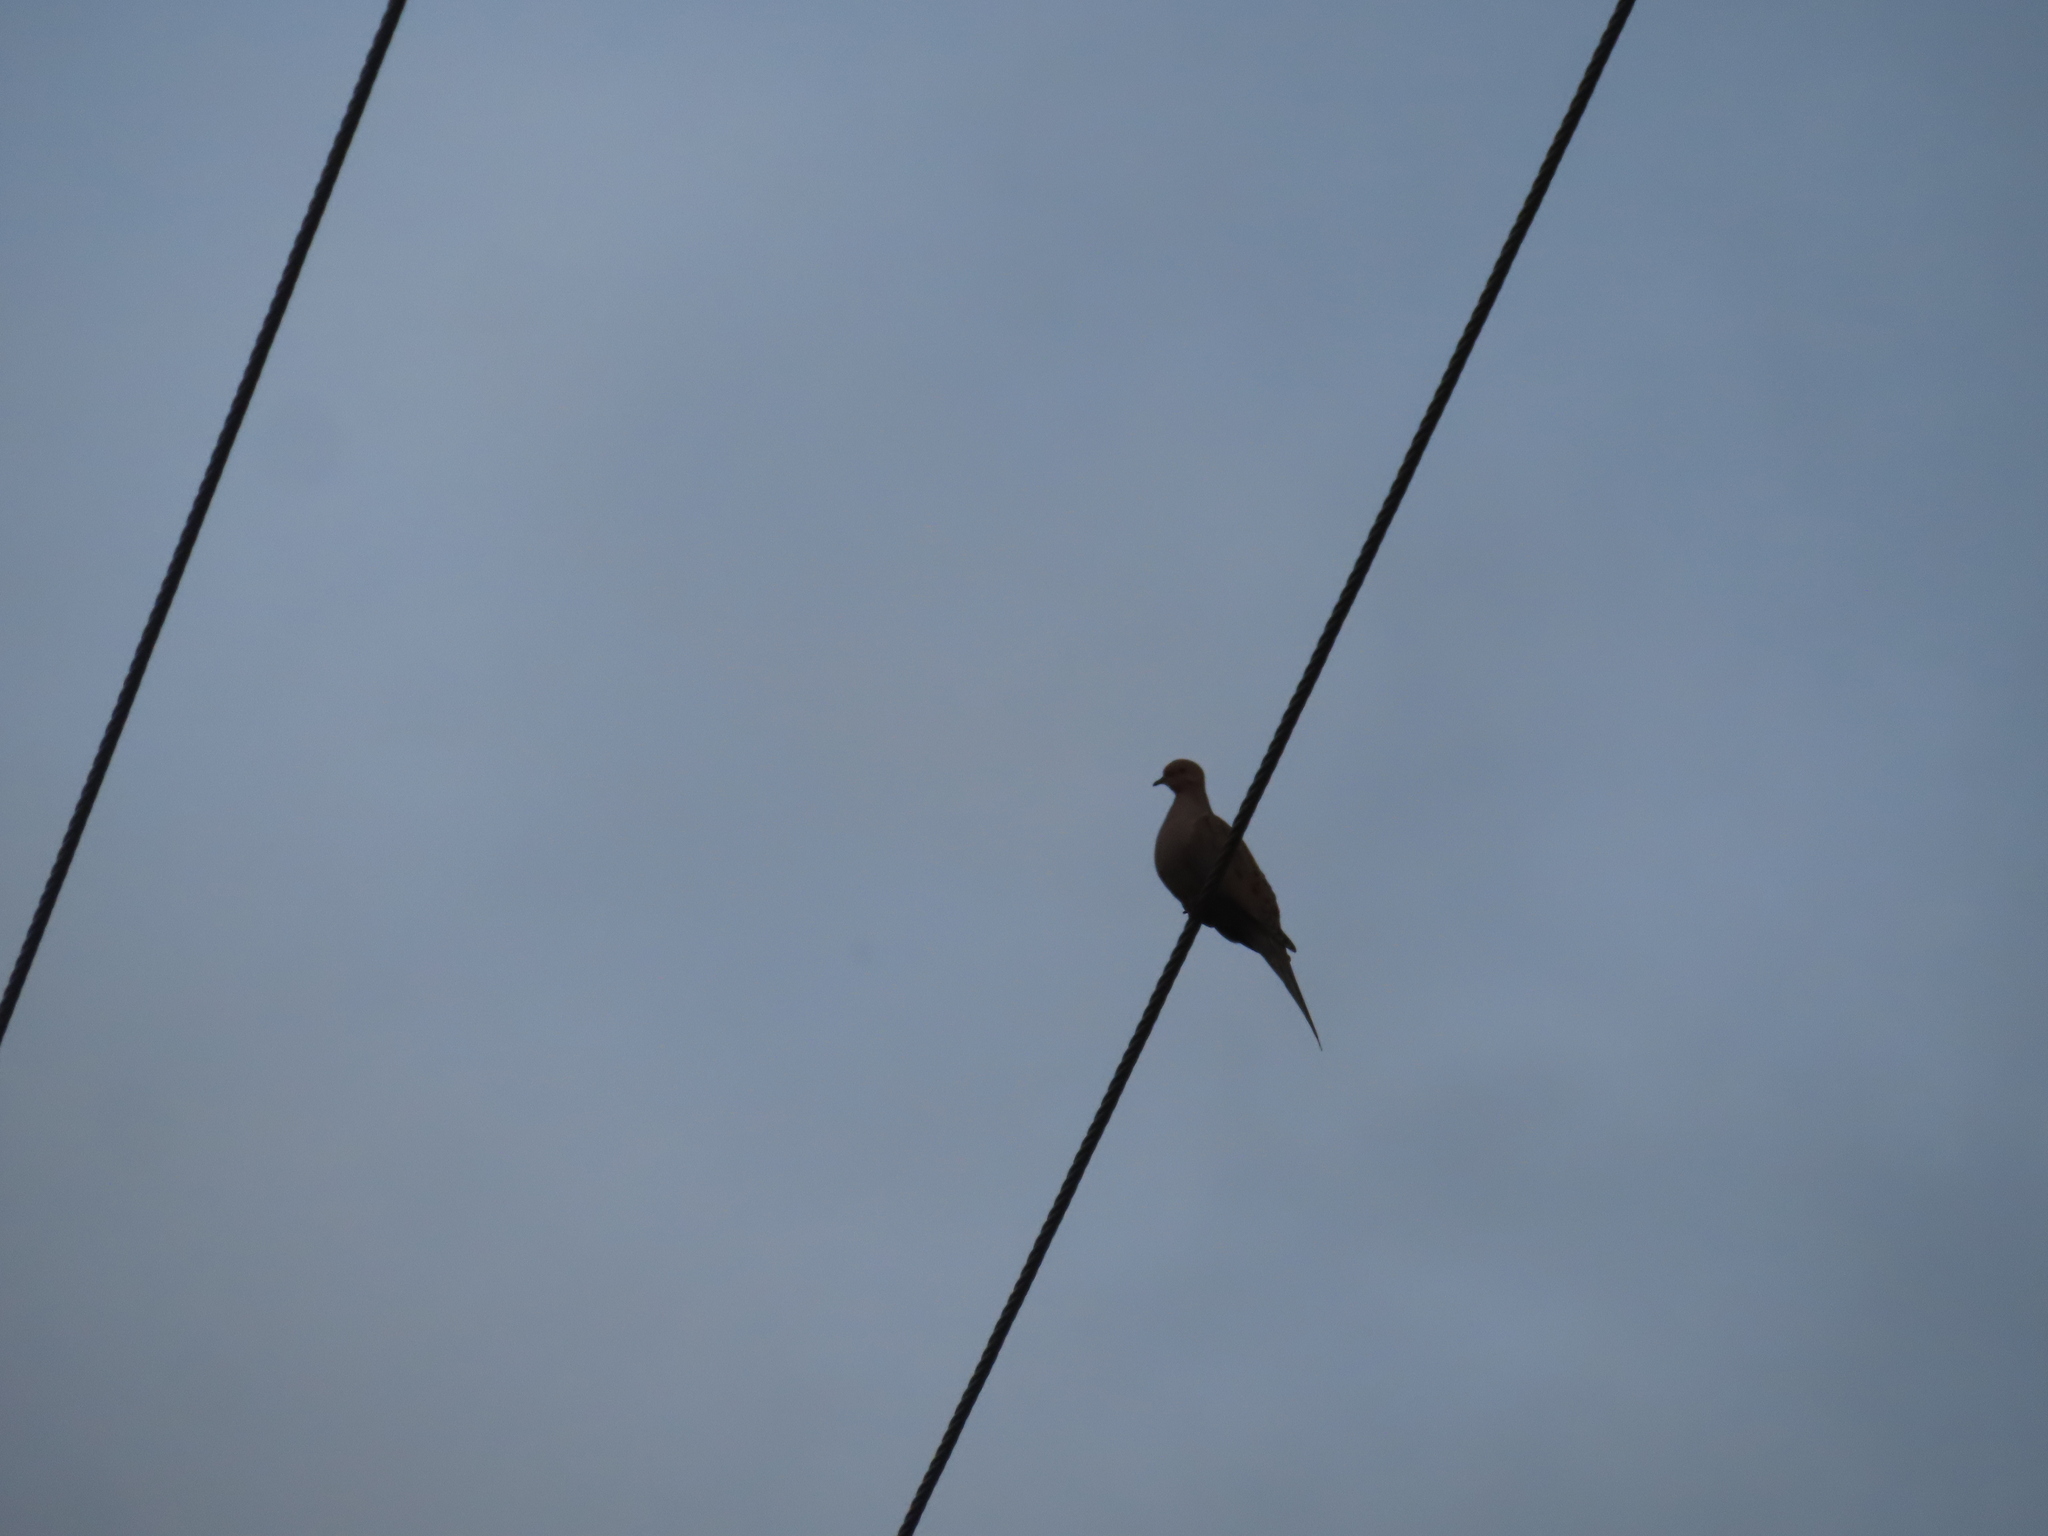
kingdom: Animalia
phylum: Chordata
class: Aves
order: Columbiformes
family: Columbidae
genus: Zenaida
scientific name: Zenaida macroura
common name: Mourning dove
